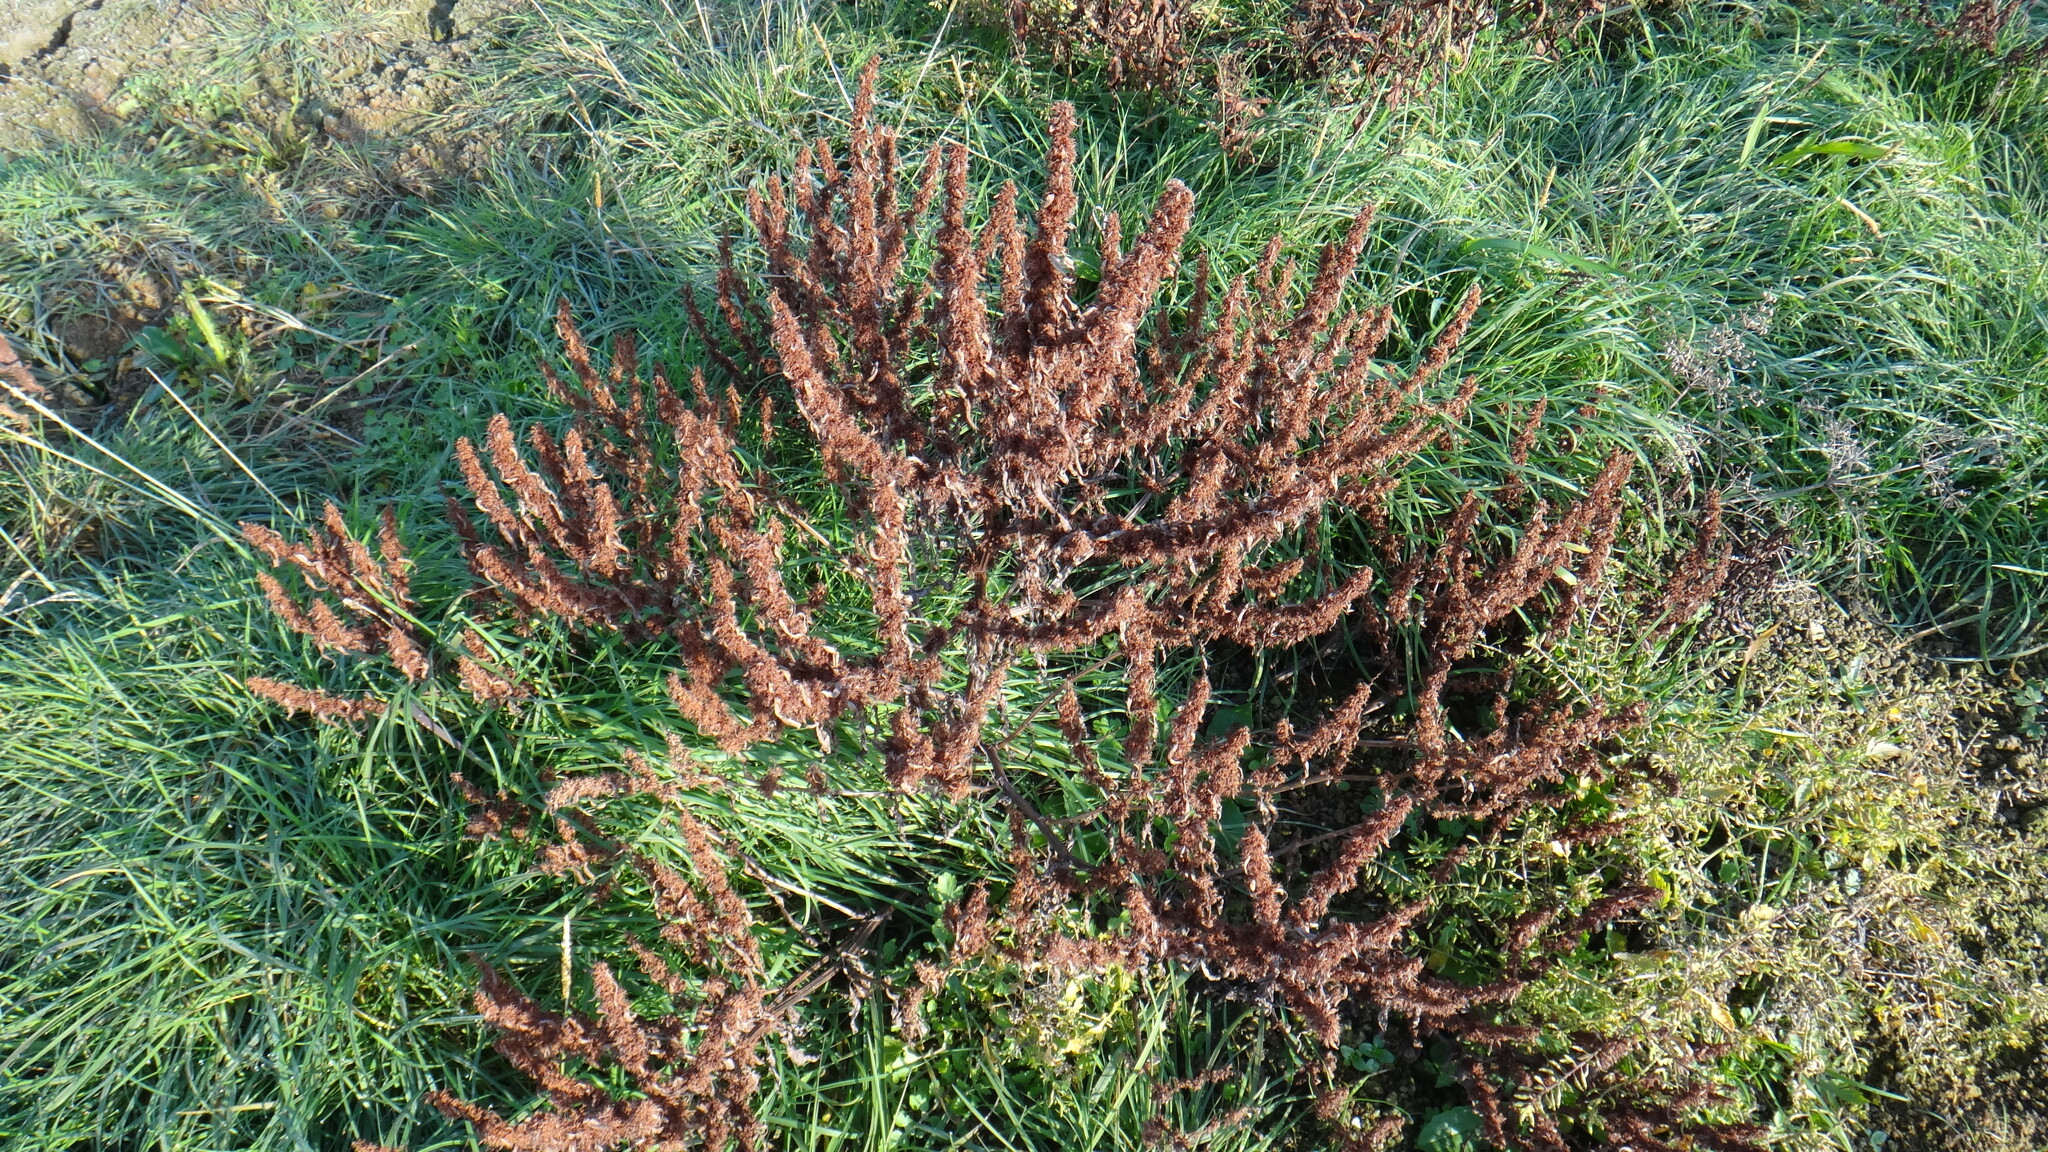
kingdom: Plantae
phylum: Tracheophyta
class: Magnoliopsida
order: Caryophyllales
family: Polygonaceae
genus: Rumex
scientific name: Rumex maritimus
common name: Golden dock
